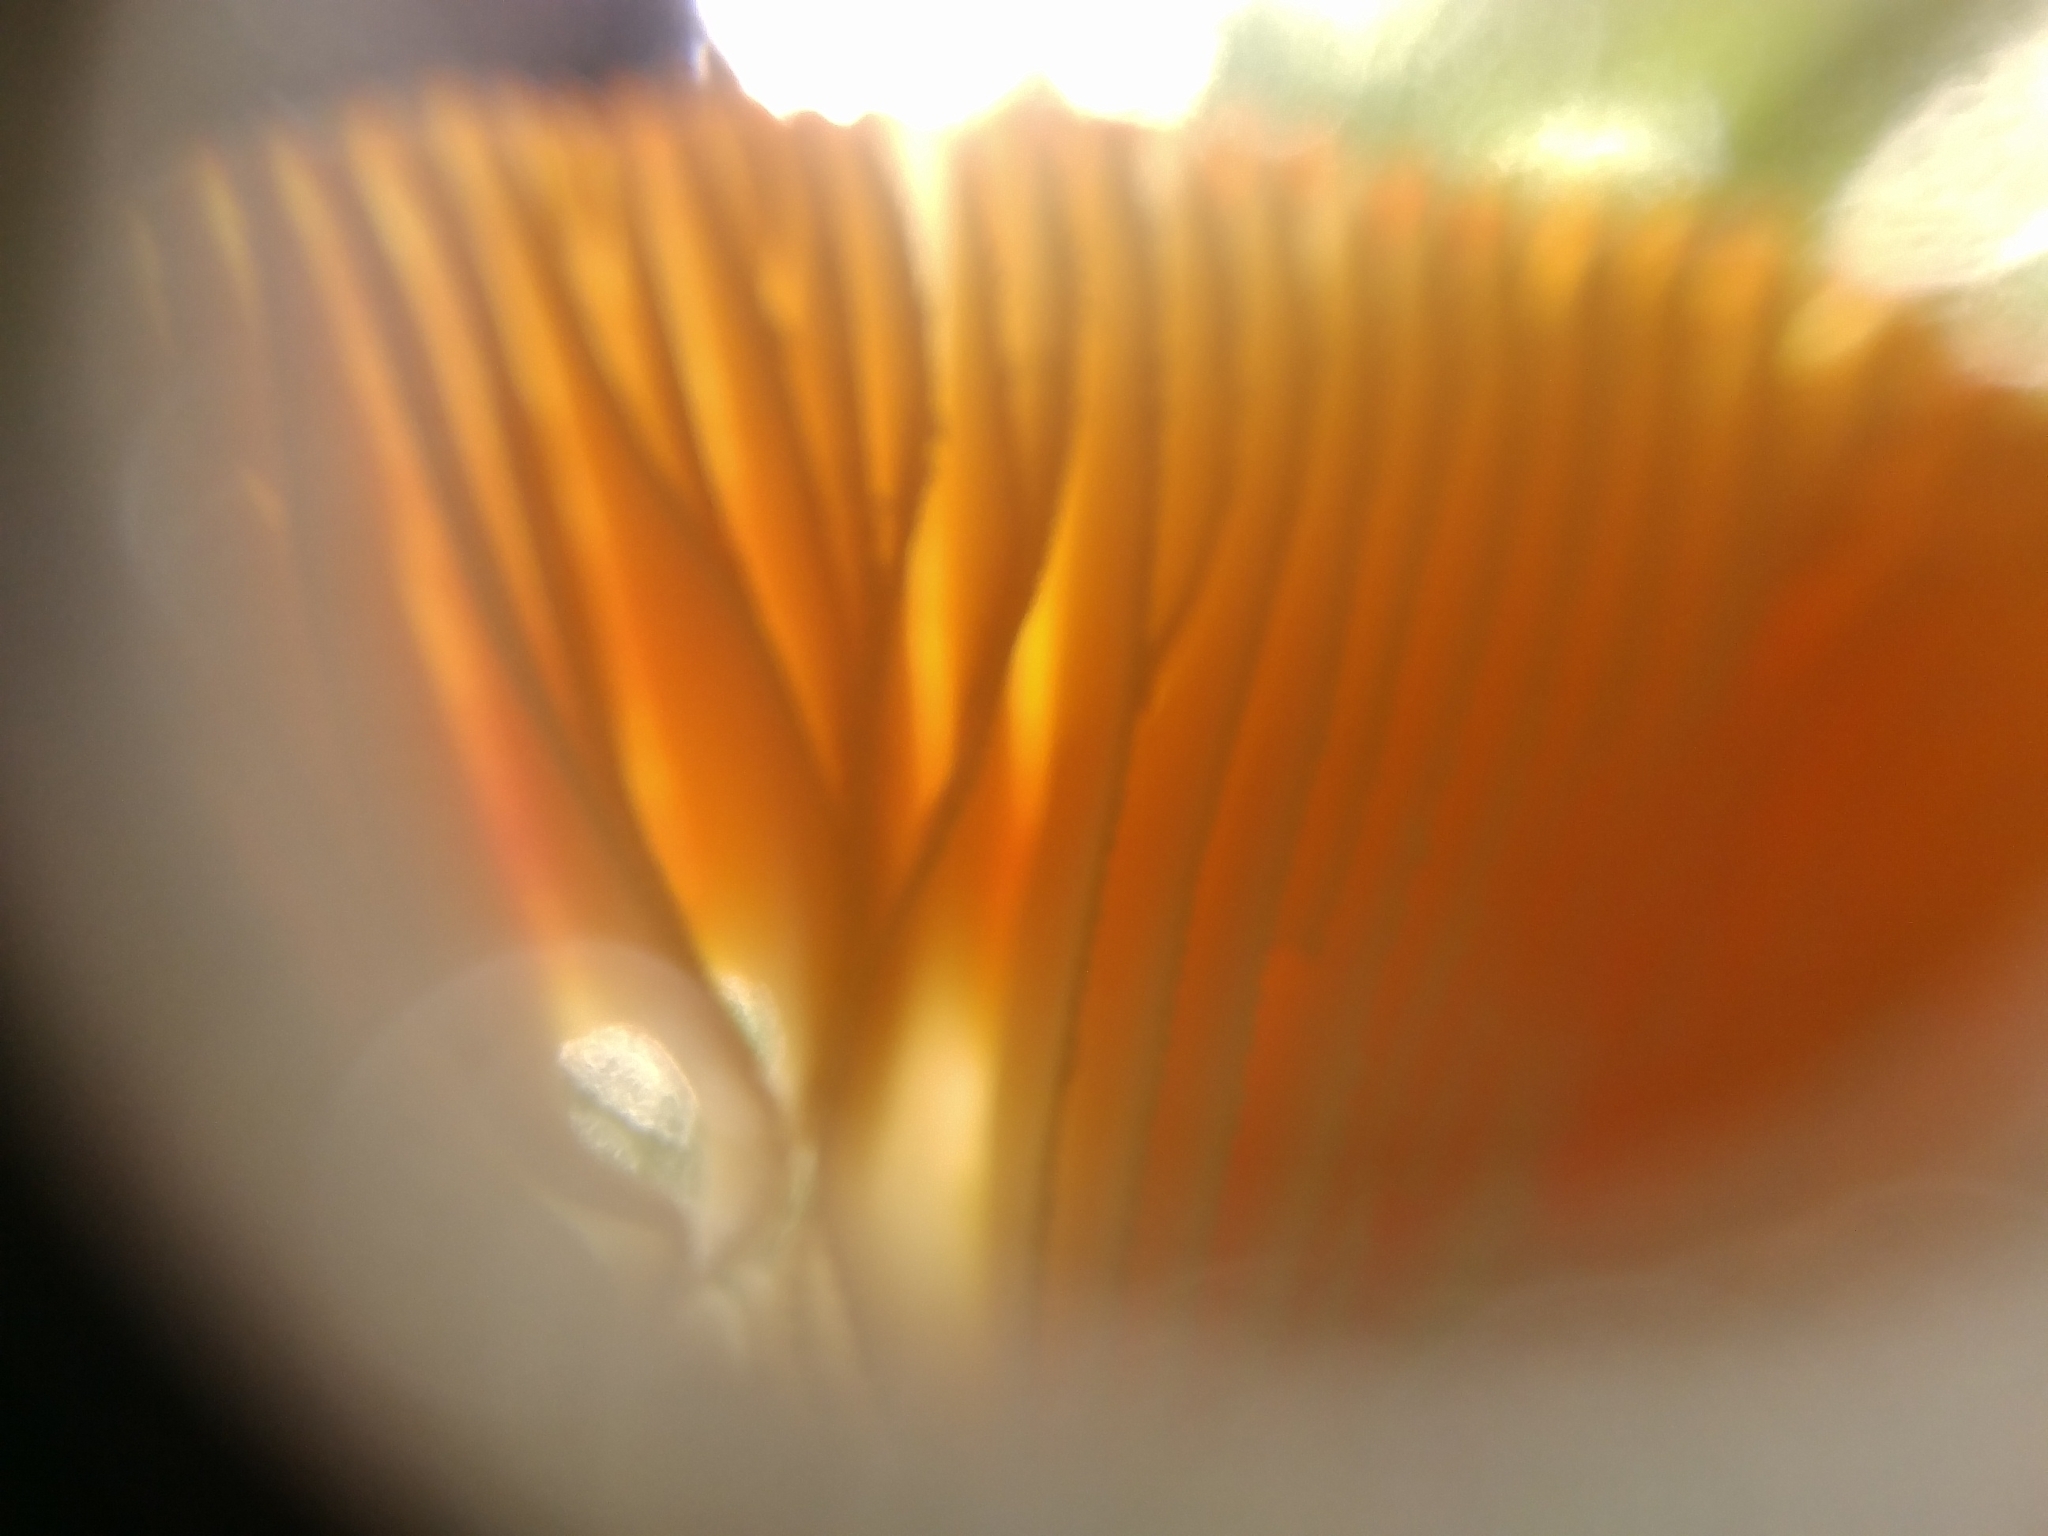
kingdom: Fungi
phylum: Basidiomycota
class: Agaricomycetes
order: Agaricales
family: Amanitaceae
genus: Amanita
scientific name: Amanita parcivolvata
